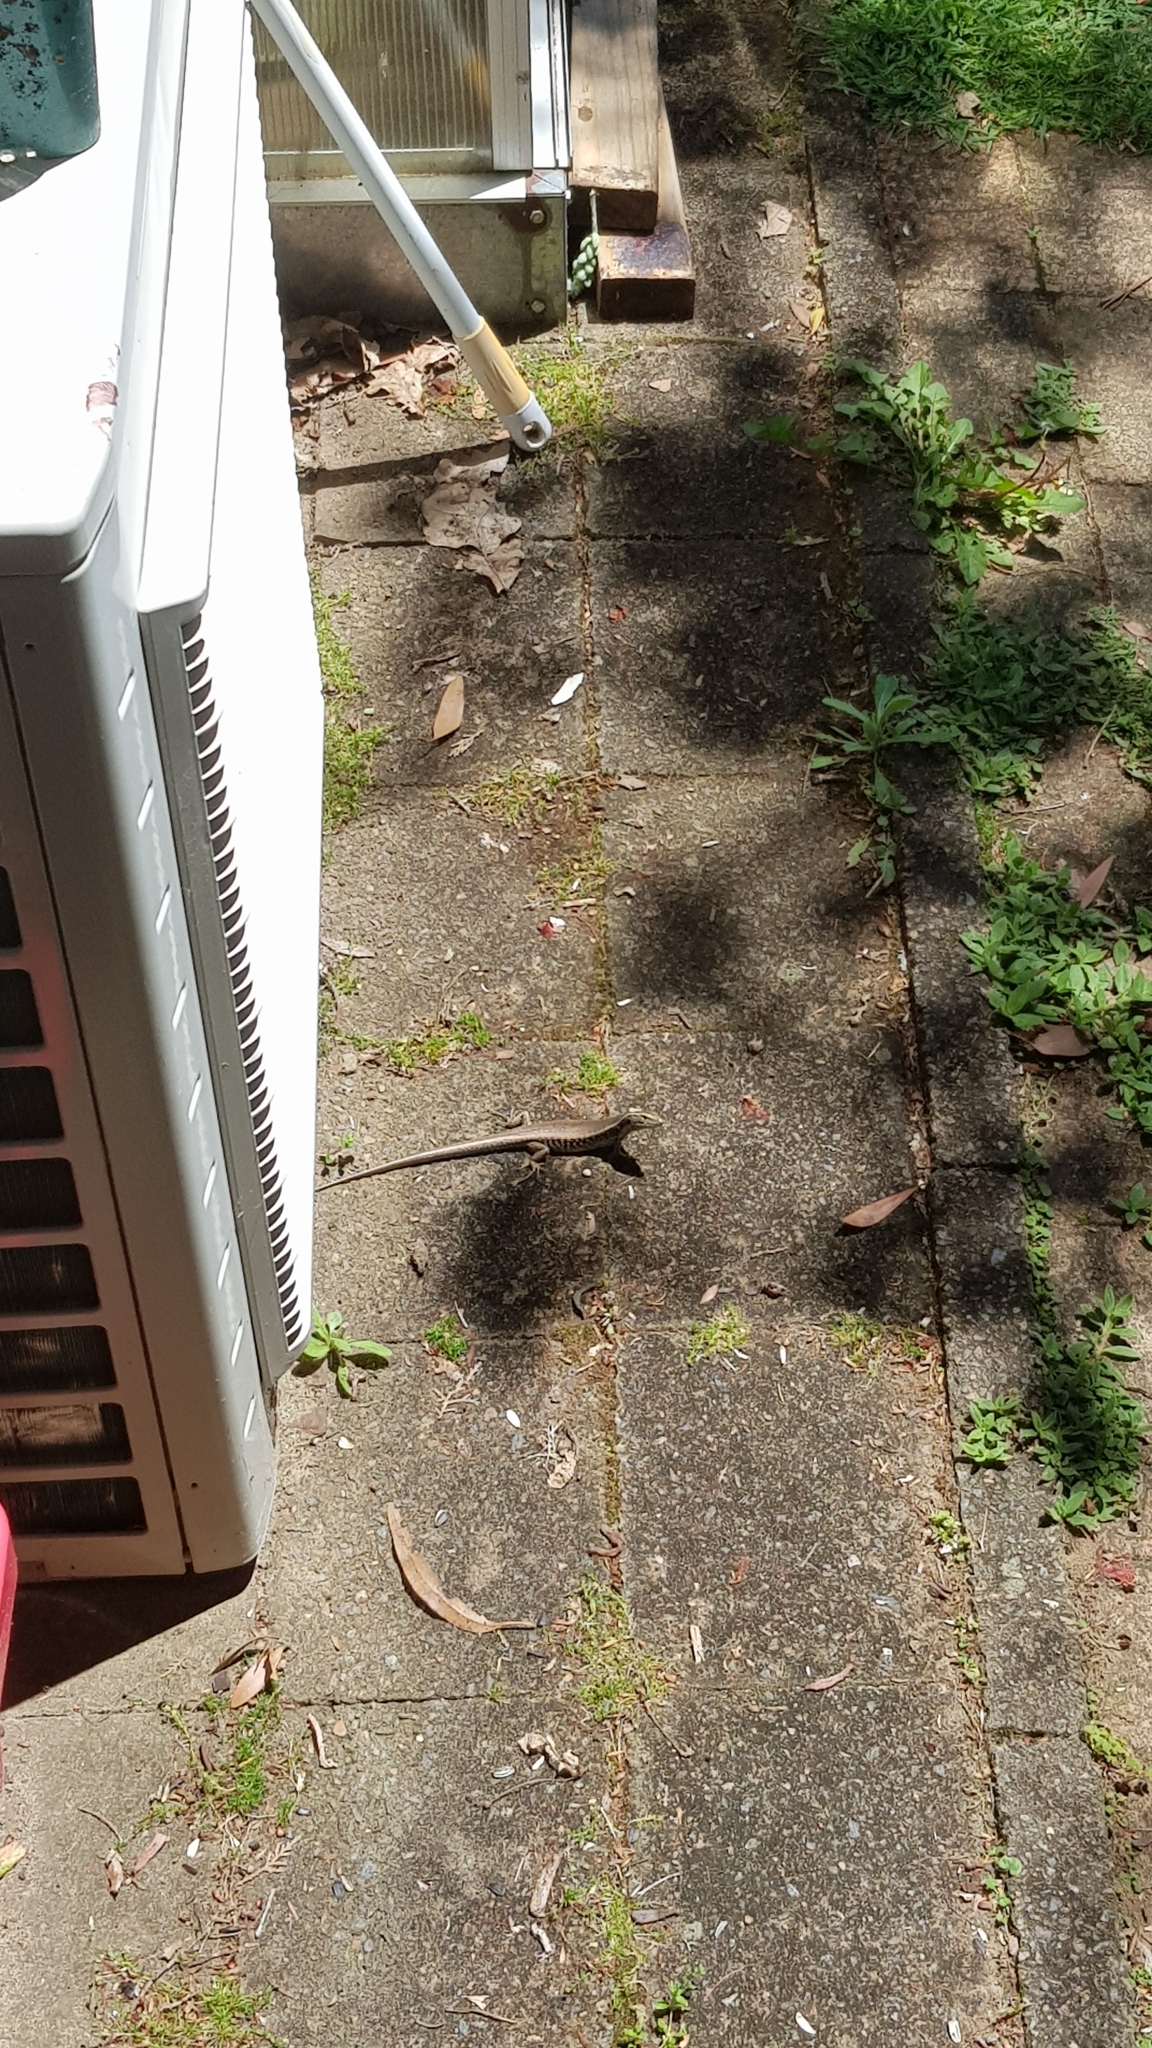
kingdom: Animalia
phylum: Chordata
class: Squamata
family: Scincidae
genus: Eulamprus
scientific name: Eulamprus quoyii
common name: Eastern water skink
